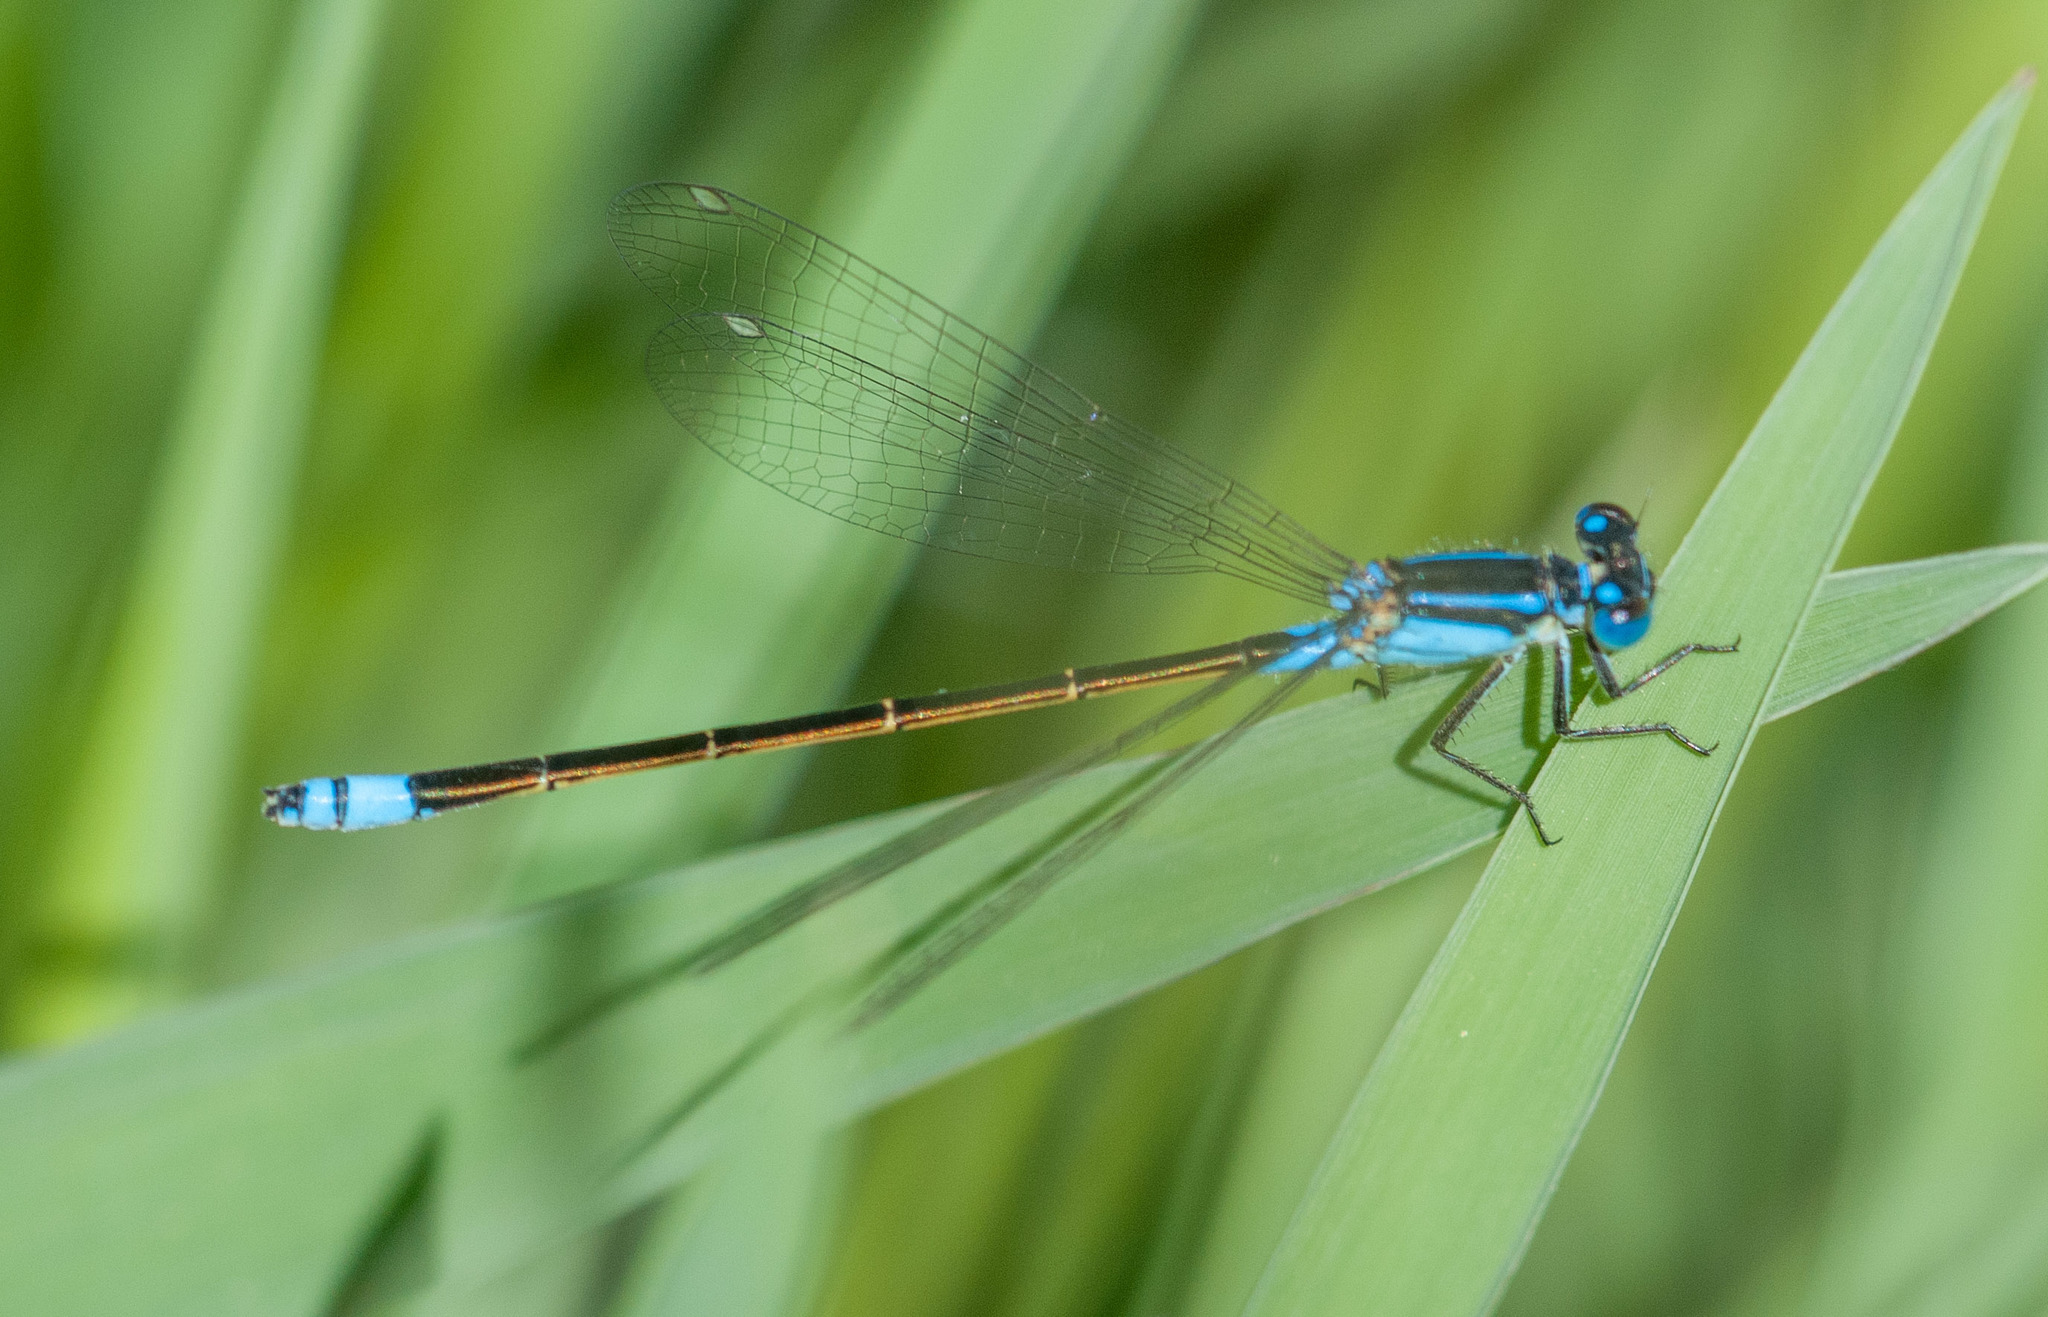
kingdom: Animalia
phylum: Arthropoda
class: Insecta
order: Odonata
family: Coenagrionidae
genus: Ischnura
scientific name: Ischnura heterosticta
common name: Common bluetail
